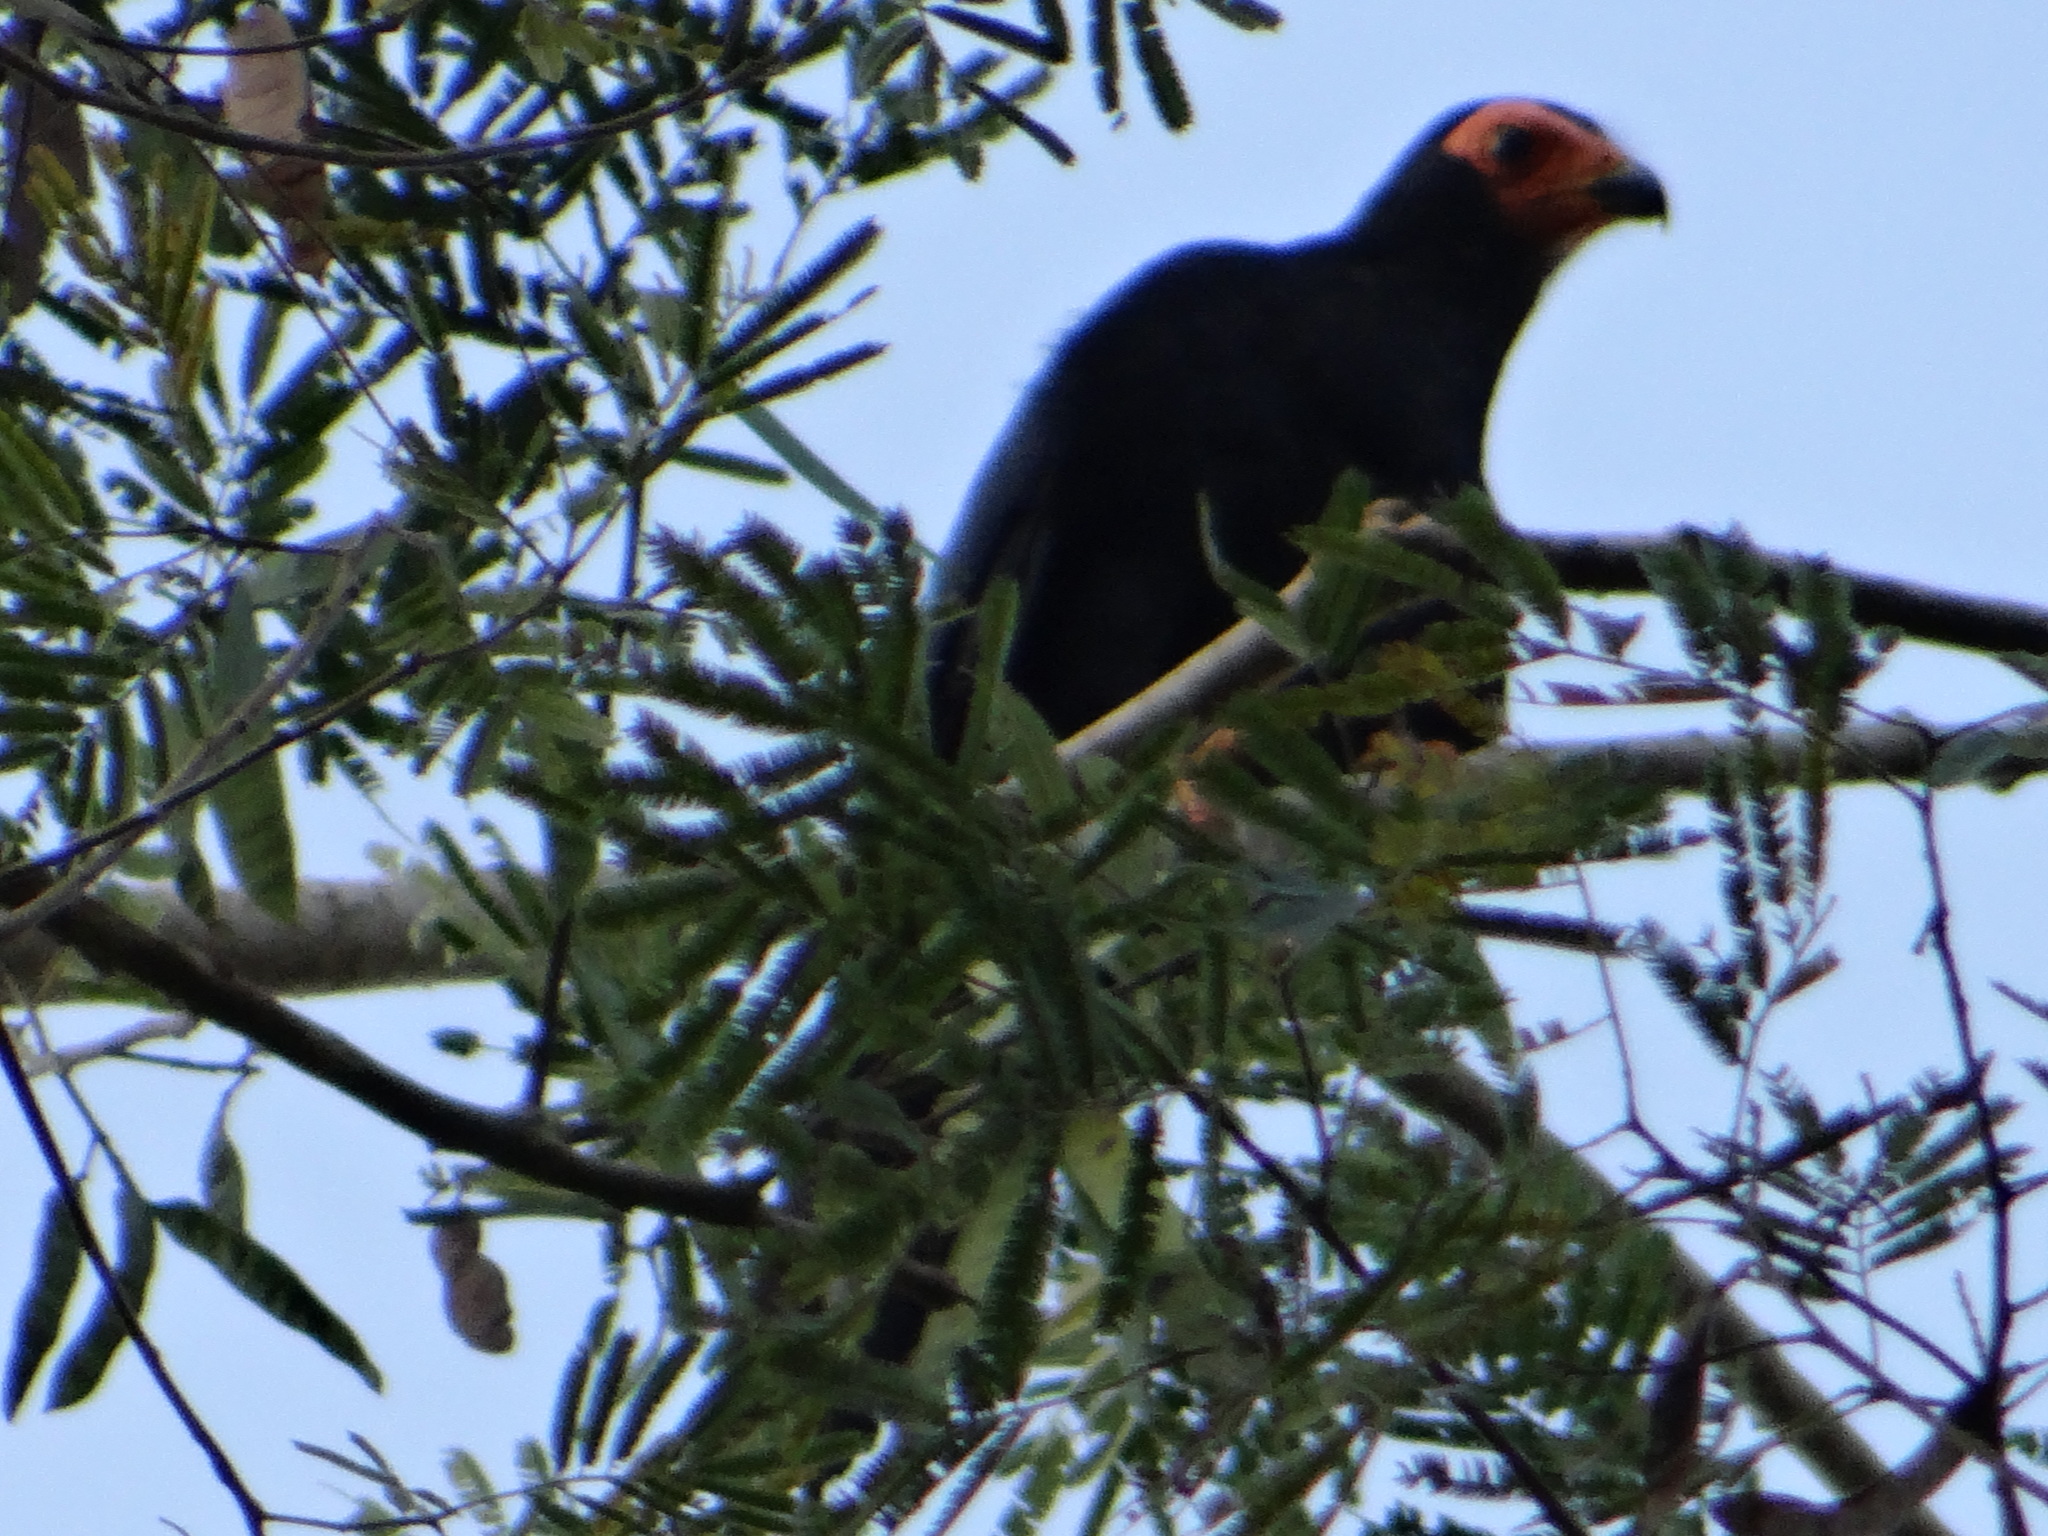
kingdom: Animalia
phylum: Chordata
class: Aves
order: Falconiformes
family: Falconidae
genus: Daptrius
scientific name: Daptrius ater
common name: Black caracara
